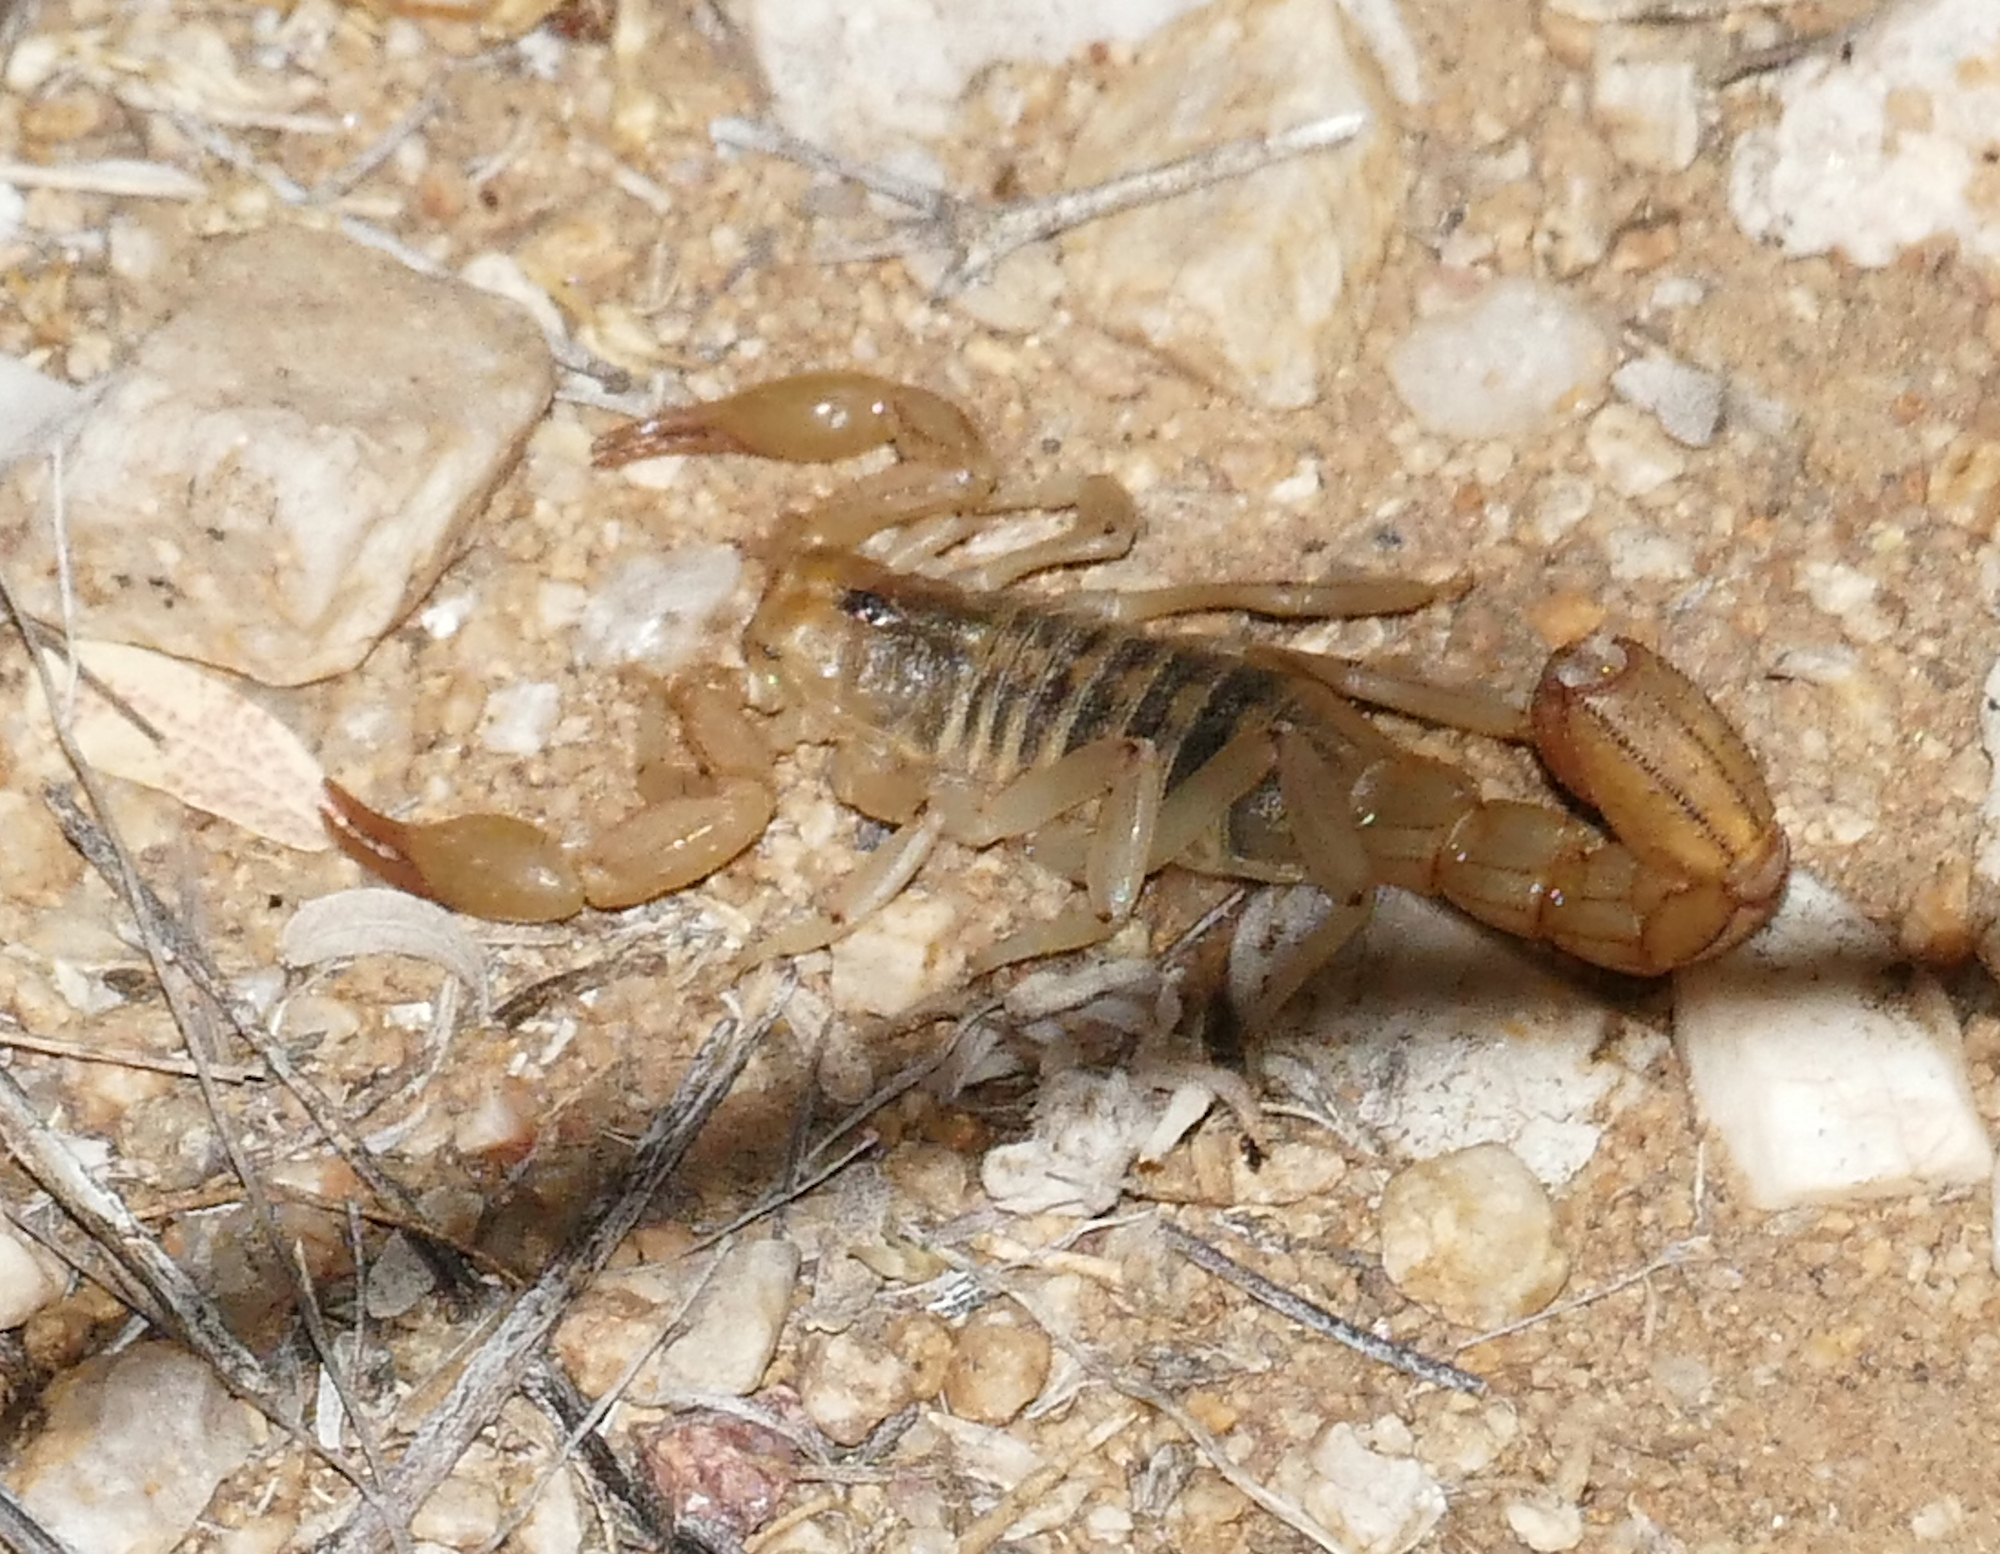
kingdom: Animalia
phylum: Arthropoda
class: Arachnida
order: Scorpiones
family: Vaejovidae
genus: Paravaejovis
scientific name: Paravaejovis spinigerus
